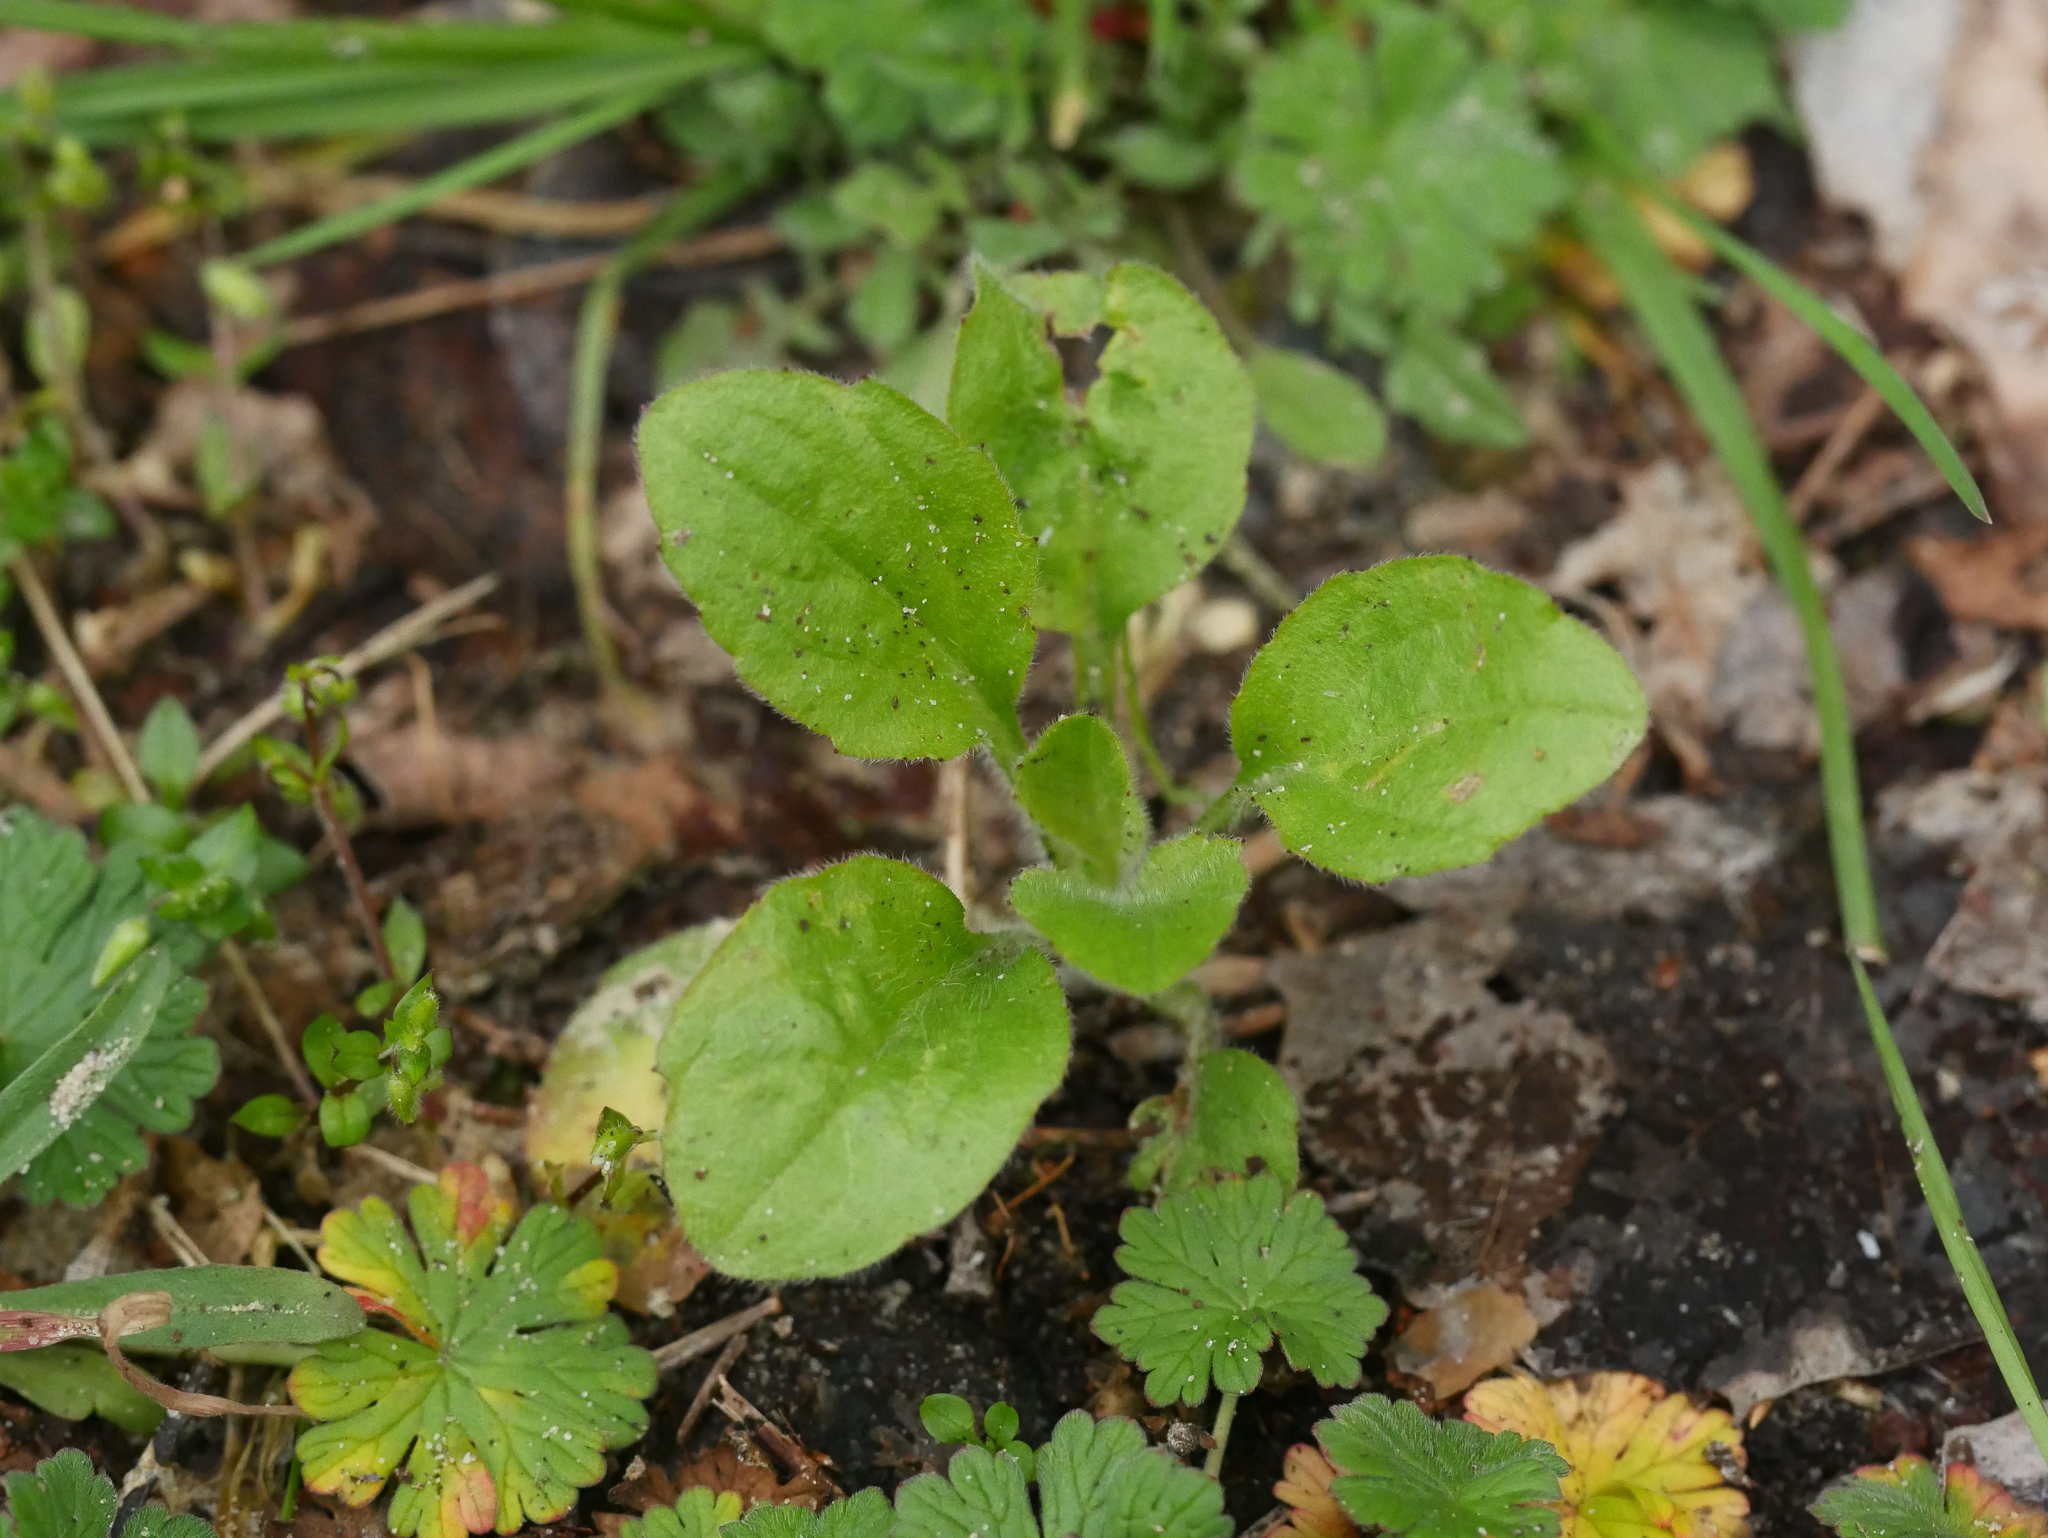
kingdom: Plantae
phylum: Tracheophyta
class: Magnoliopsida
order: Asterales
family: Asteraceae
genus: Erigeron
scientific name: Erigeron annuus
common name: Tall fleabane
